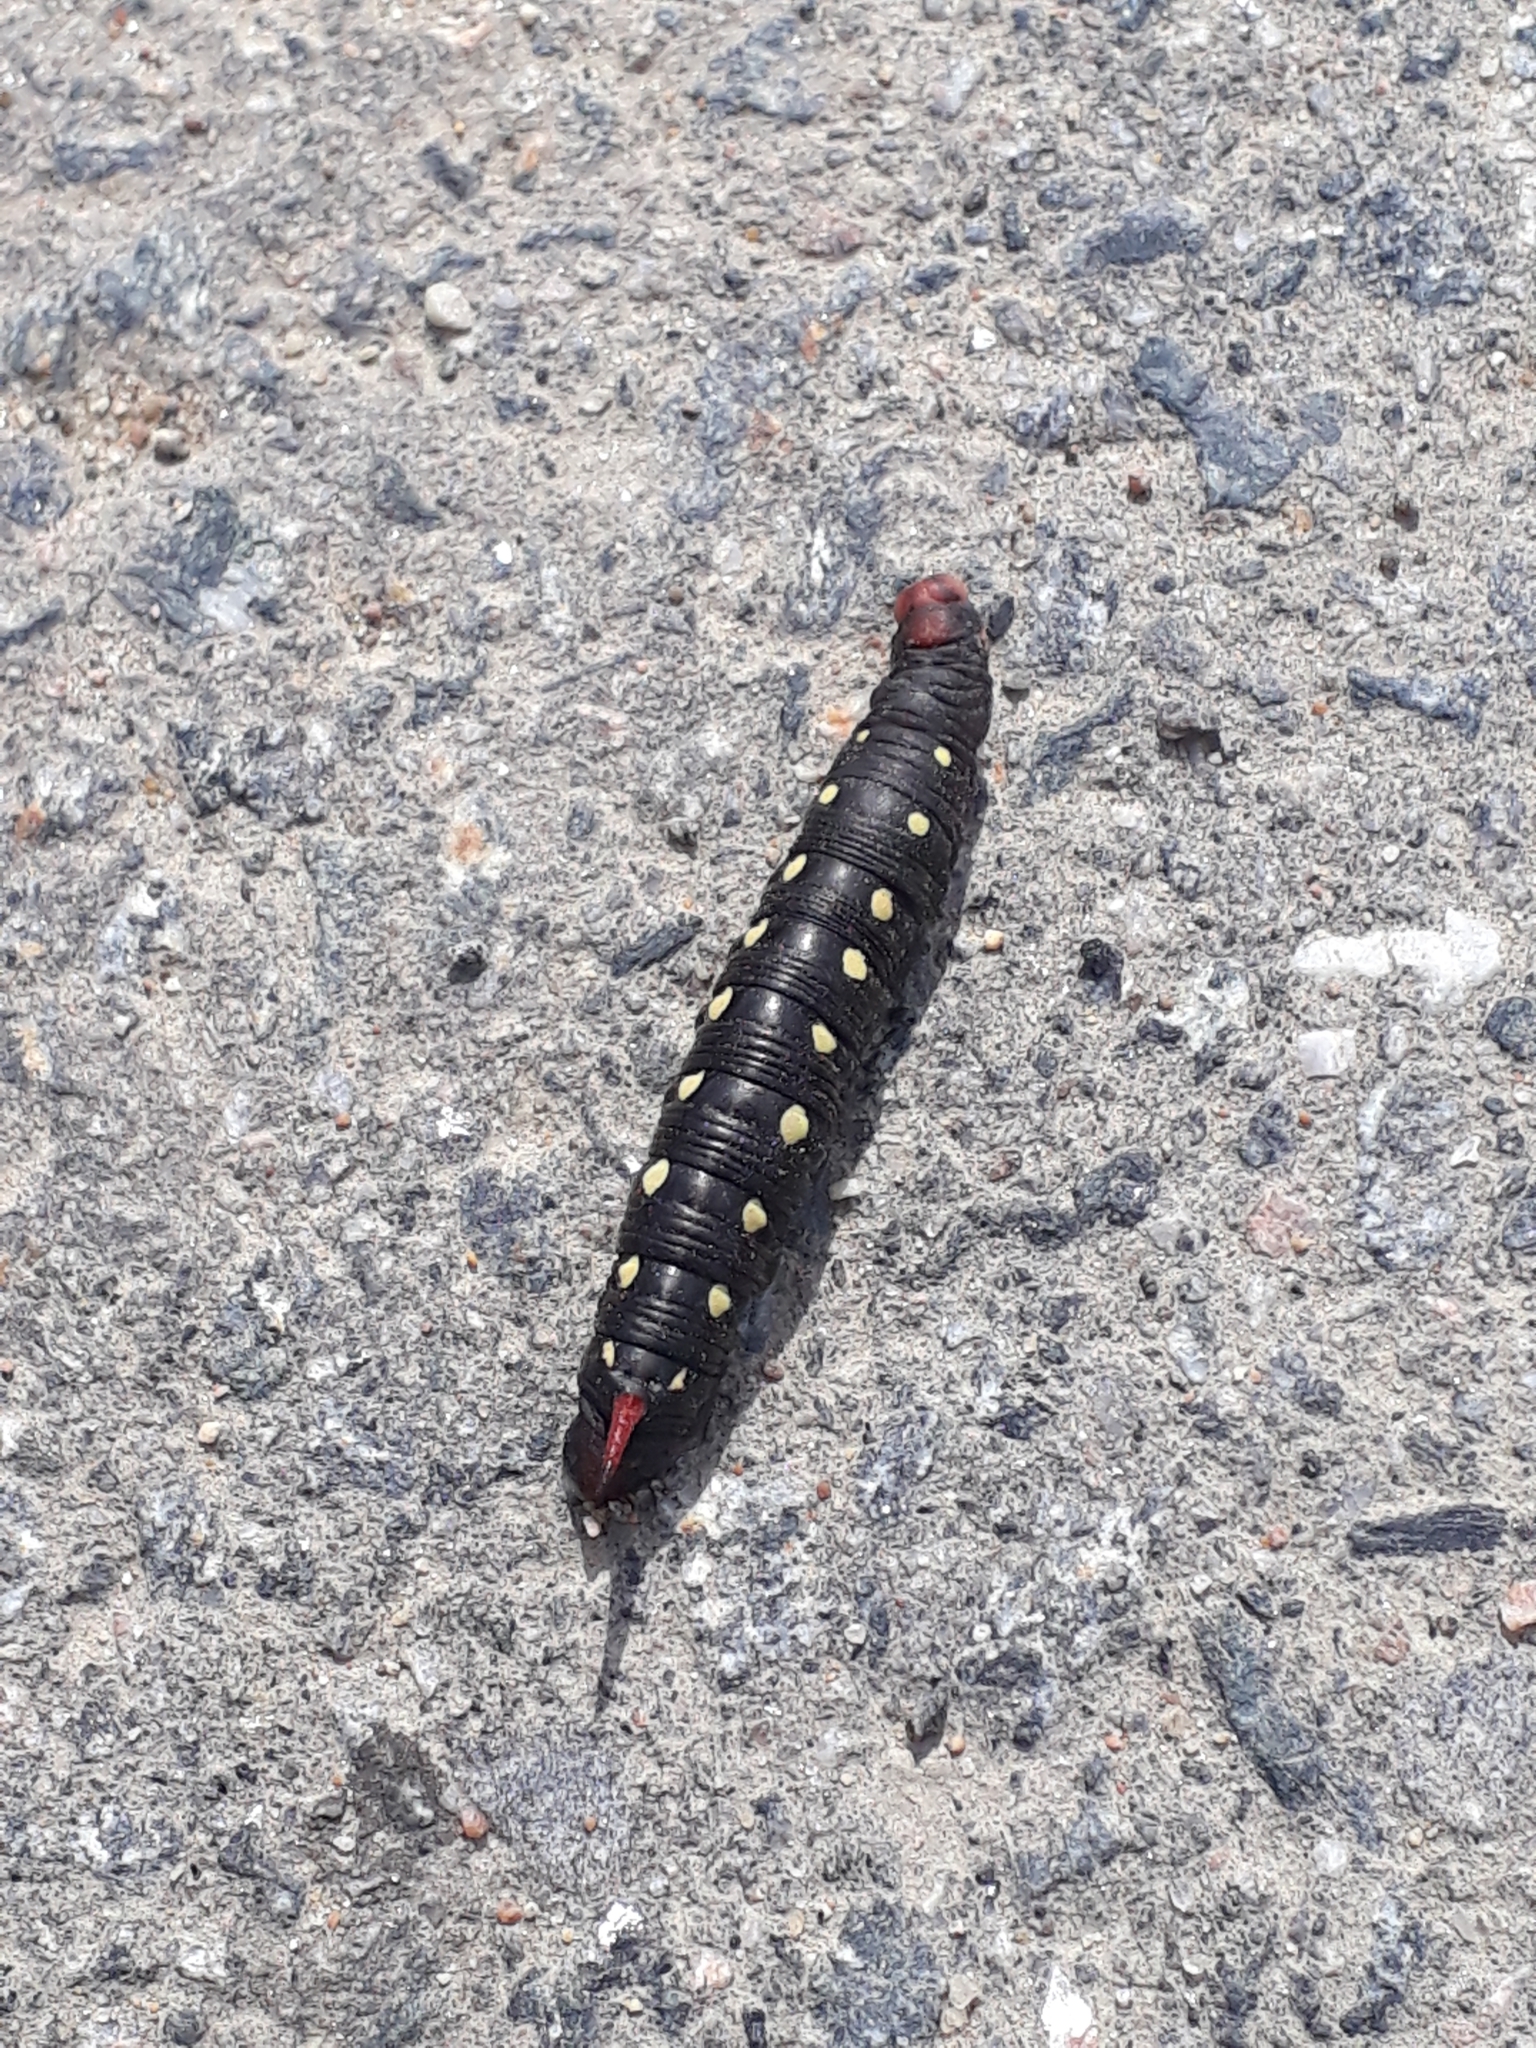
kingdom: Animalia
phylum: Arthropoda
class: Insecta
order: Lepidoptera
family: Sphingidae
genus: Hyles
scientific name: Hyles gallii
